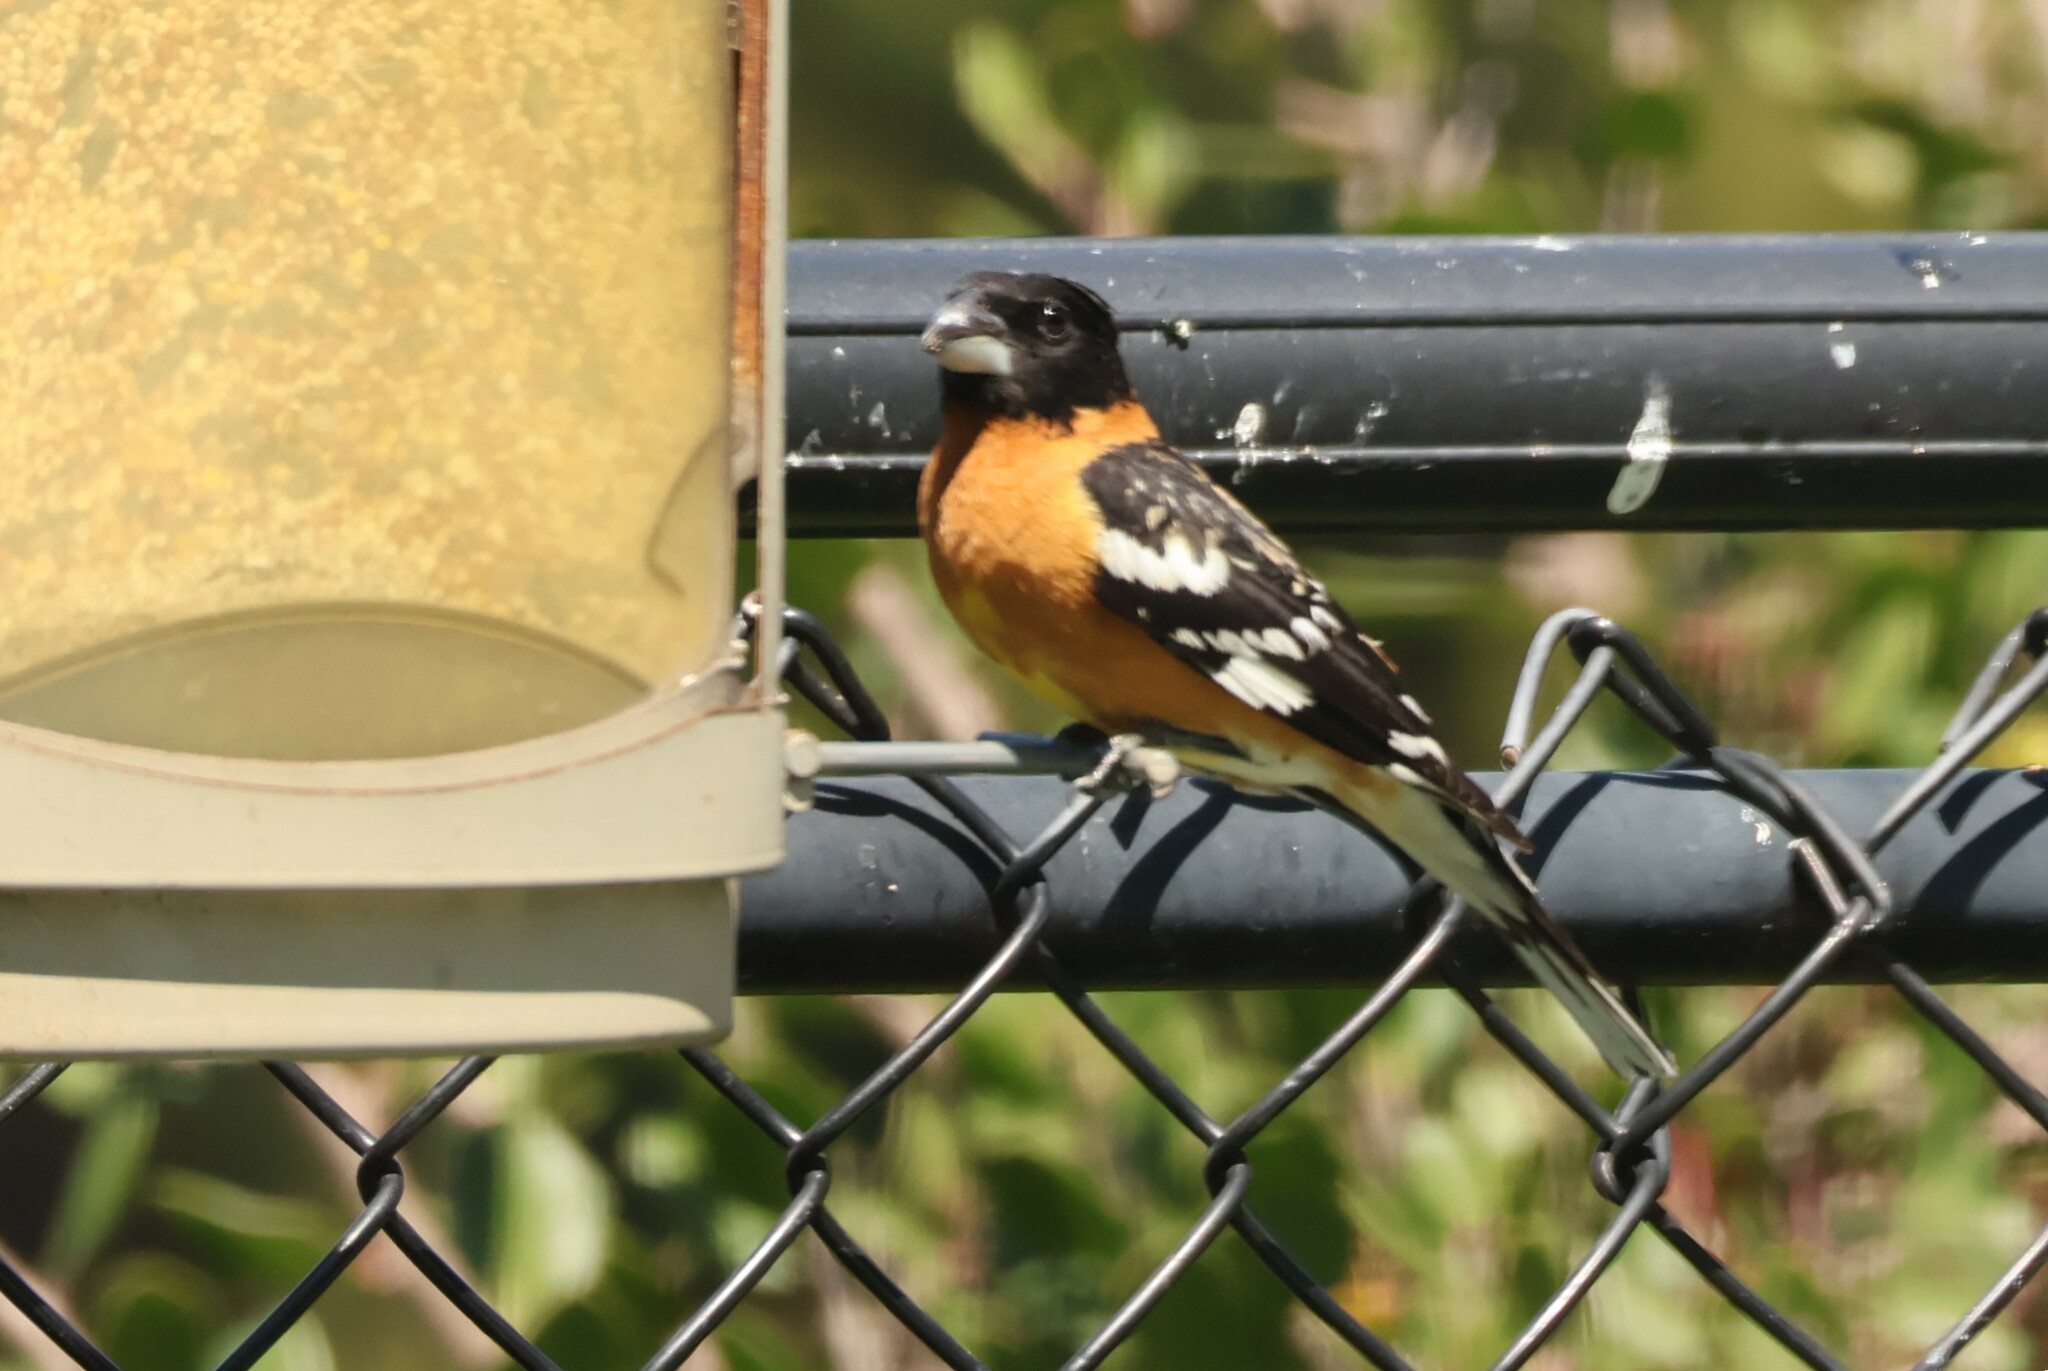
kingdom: Animalia
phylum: Chordata
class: Aves
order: Passeriformes
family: Cardinalidae
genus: Pheucticus
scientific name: Pheucticus melanocephalus
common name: Black-headed grosbeak
